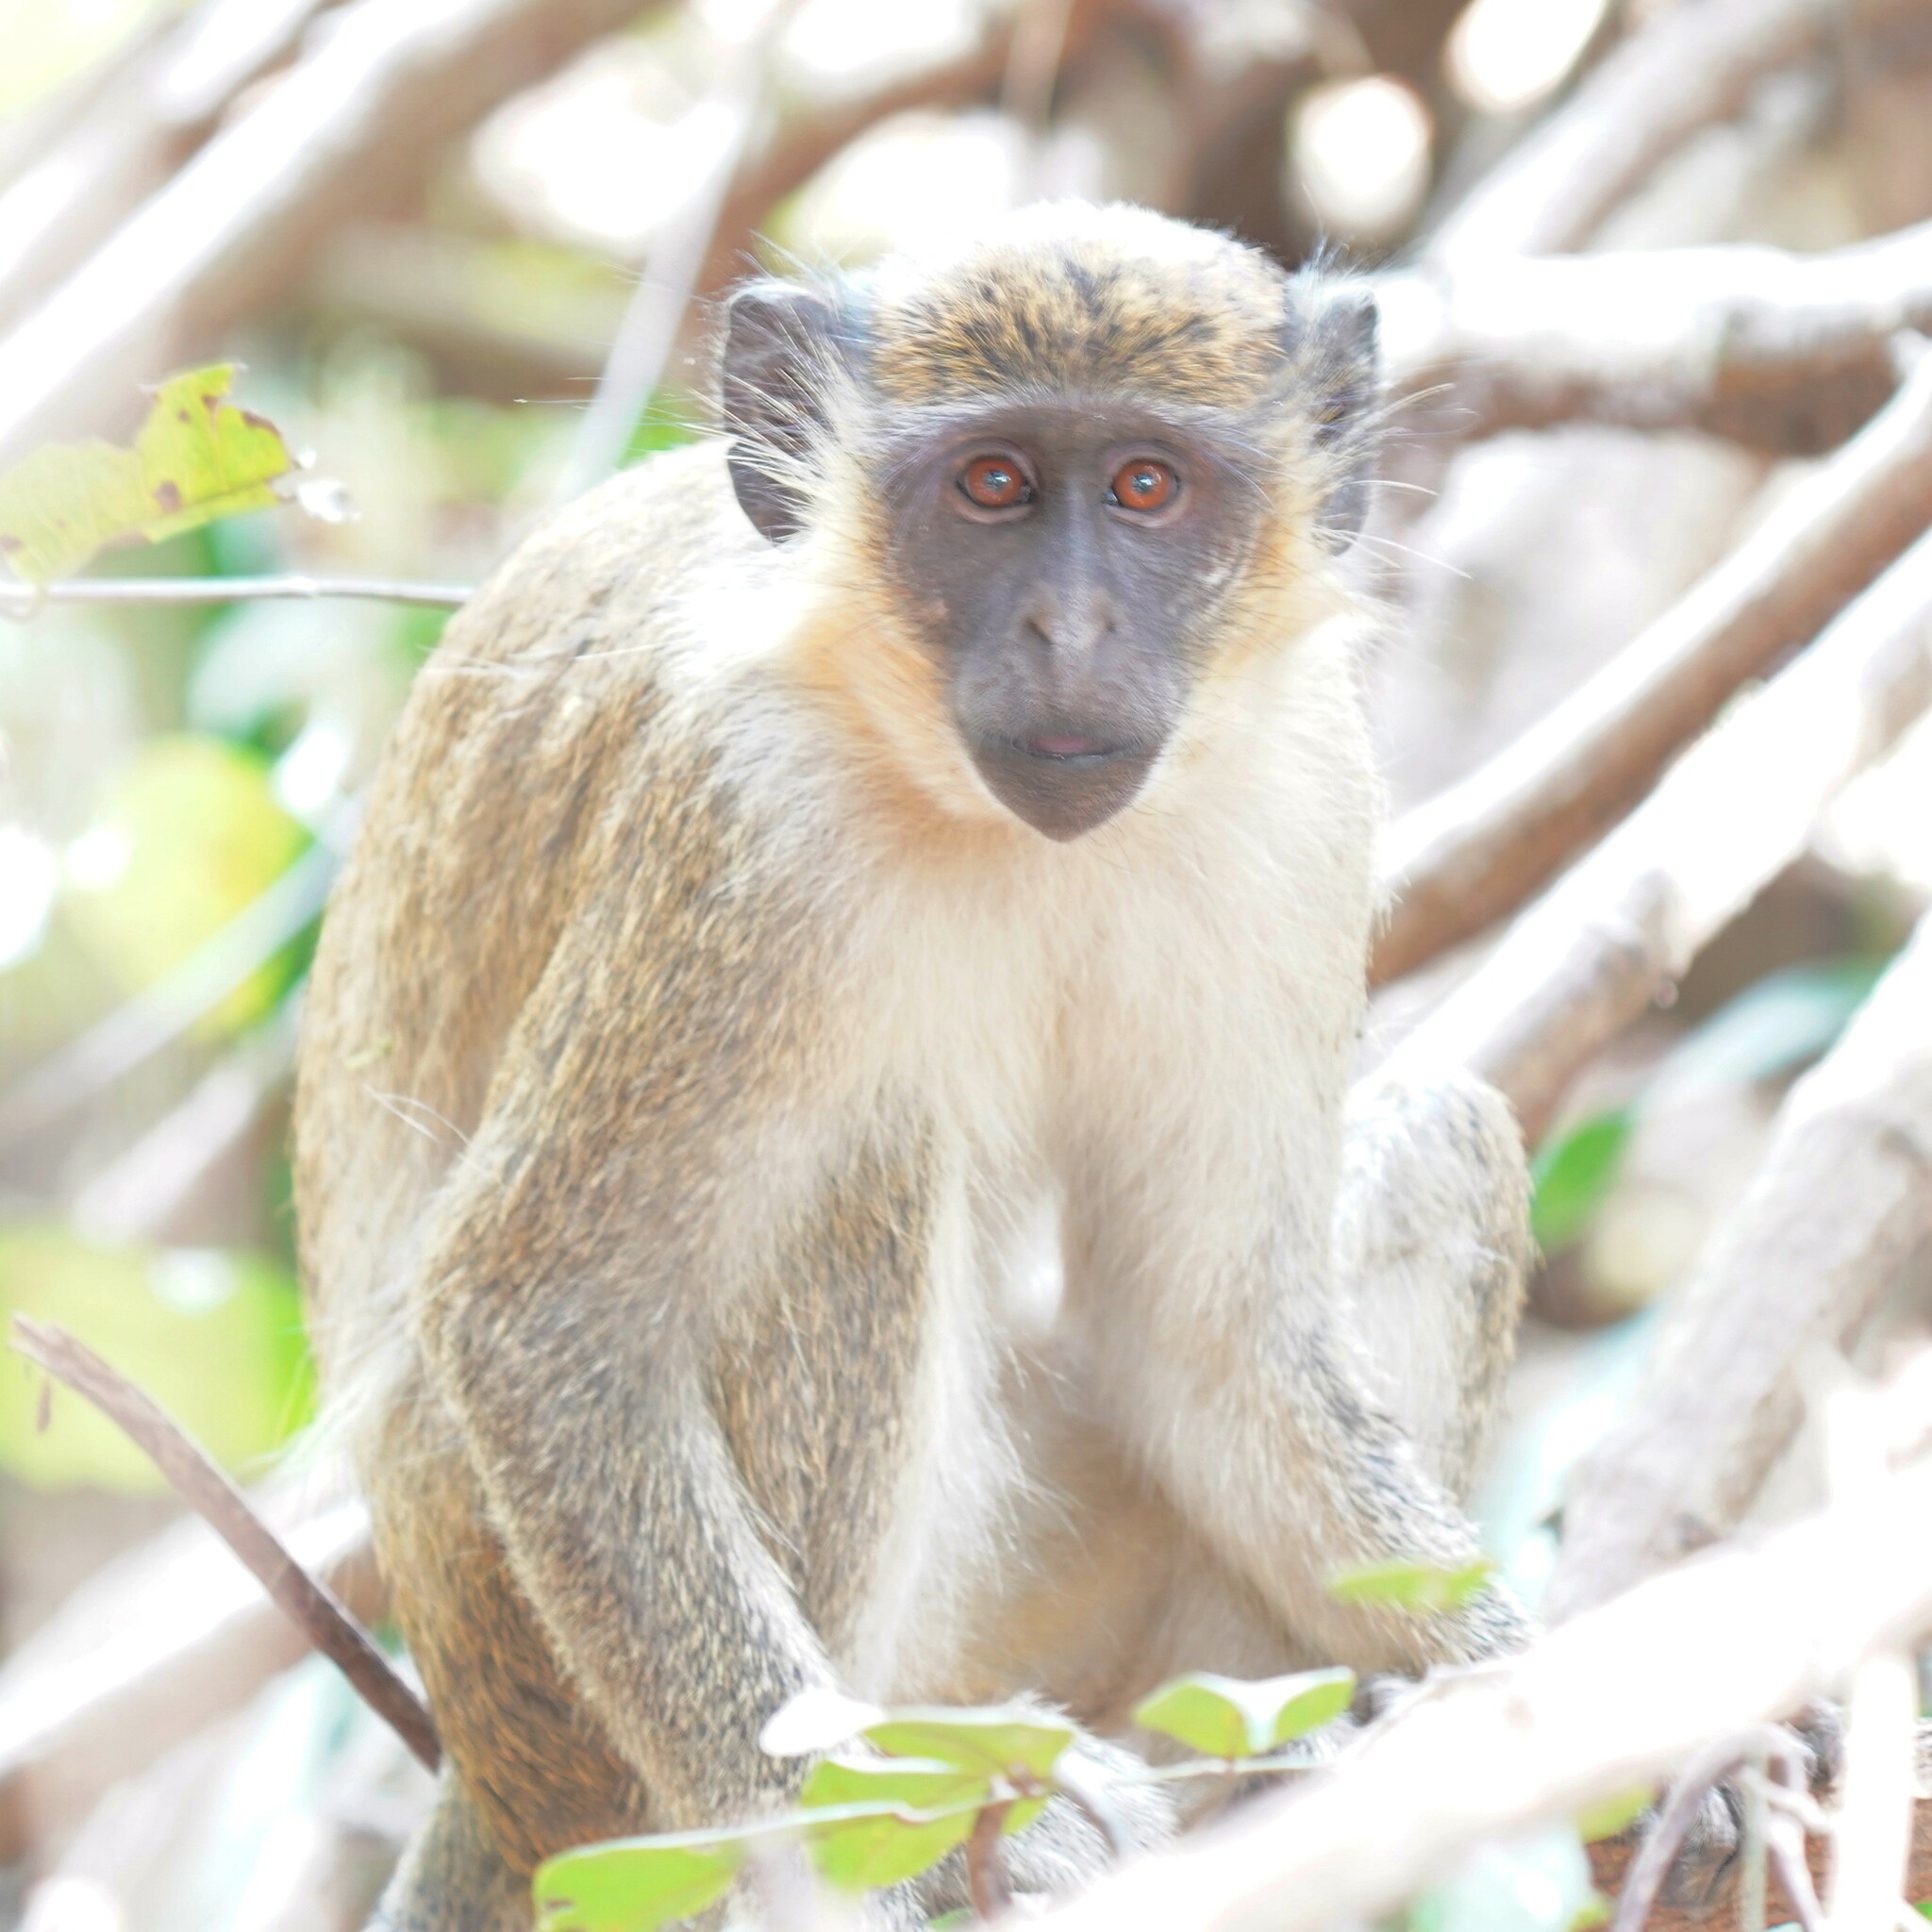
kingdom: Animalia
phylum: Chordata
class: Mammalia
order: Primates
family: Cercopithecidae
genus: Chlorocebus
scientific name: Chlorocebus sabaeus
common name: Green monkey
